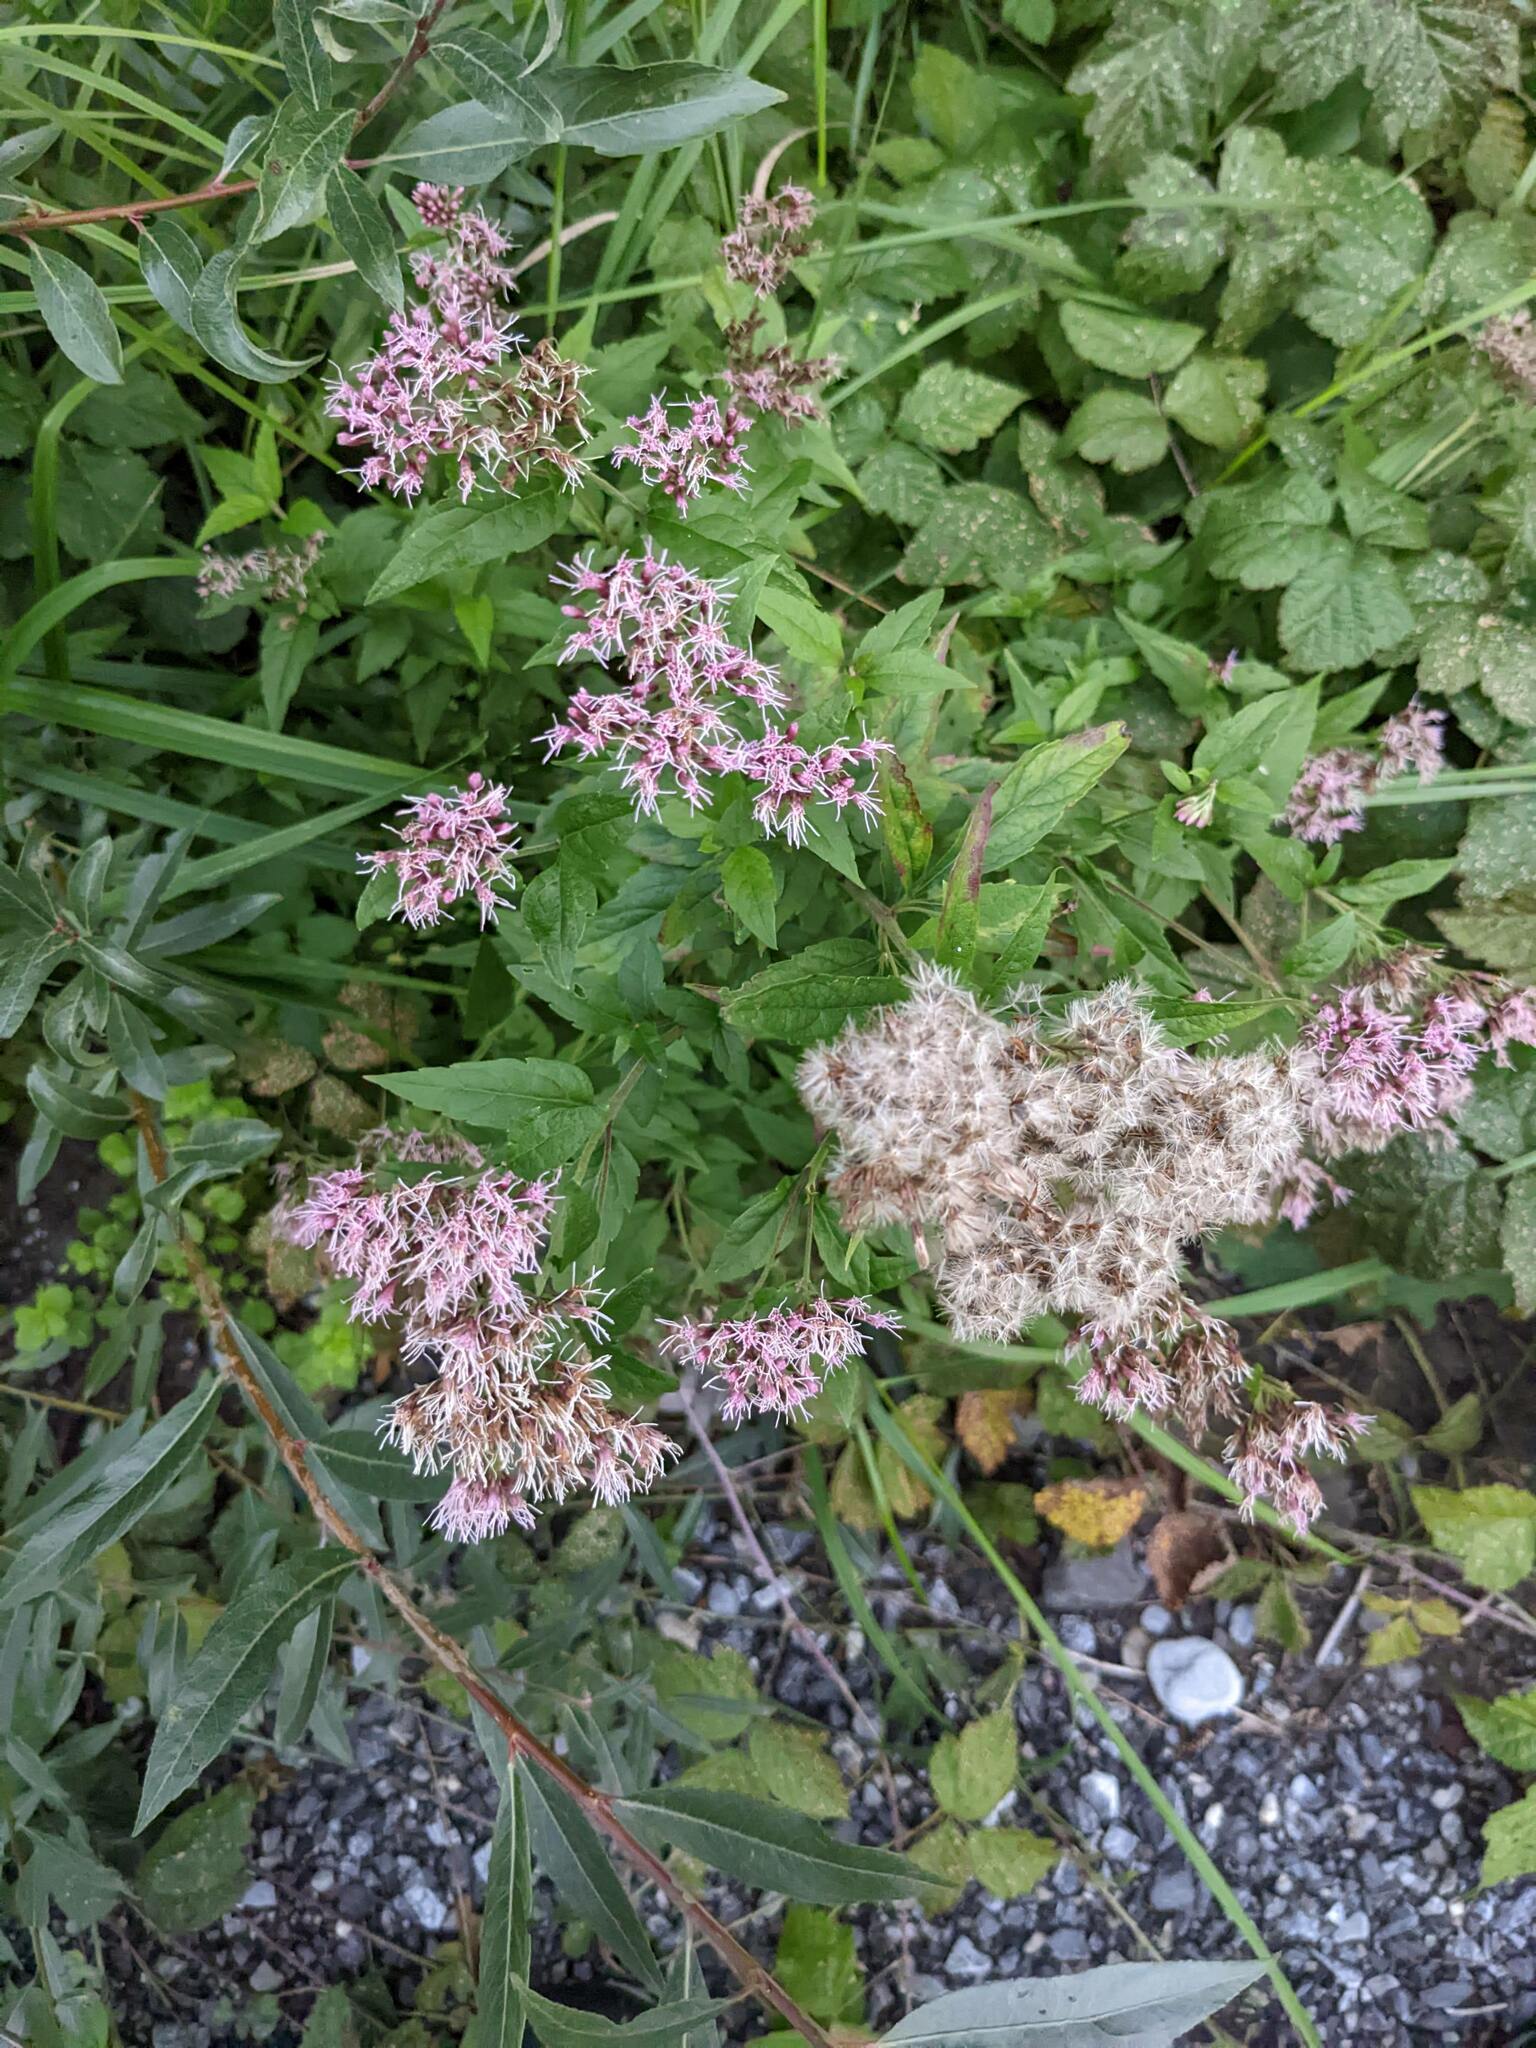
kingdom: Plantae
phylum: Tracheophyta
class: Magnoliopsida
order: Asterales
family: Asteraceae
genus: Eupatorium
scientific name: Eupatorium cannabinum
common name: Hemp-agrimony
